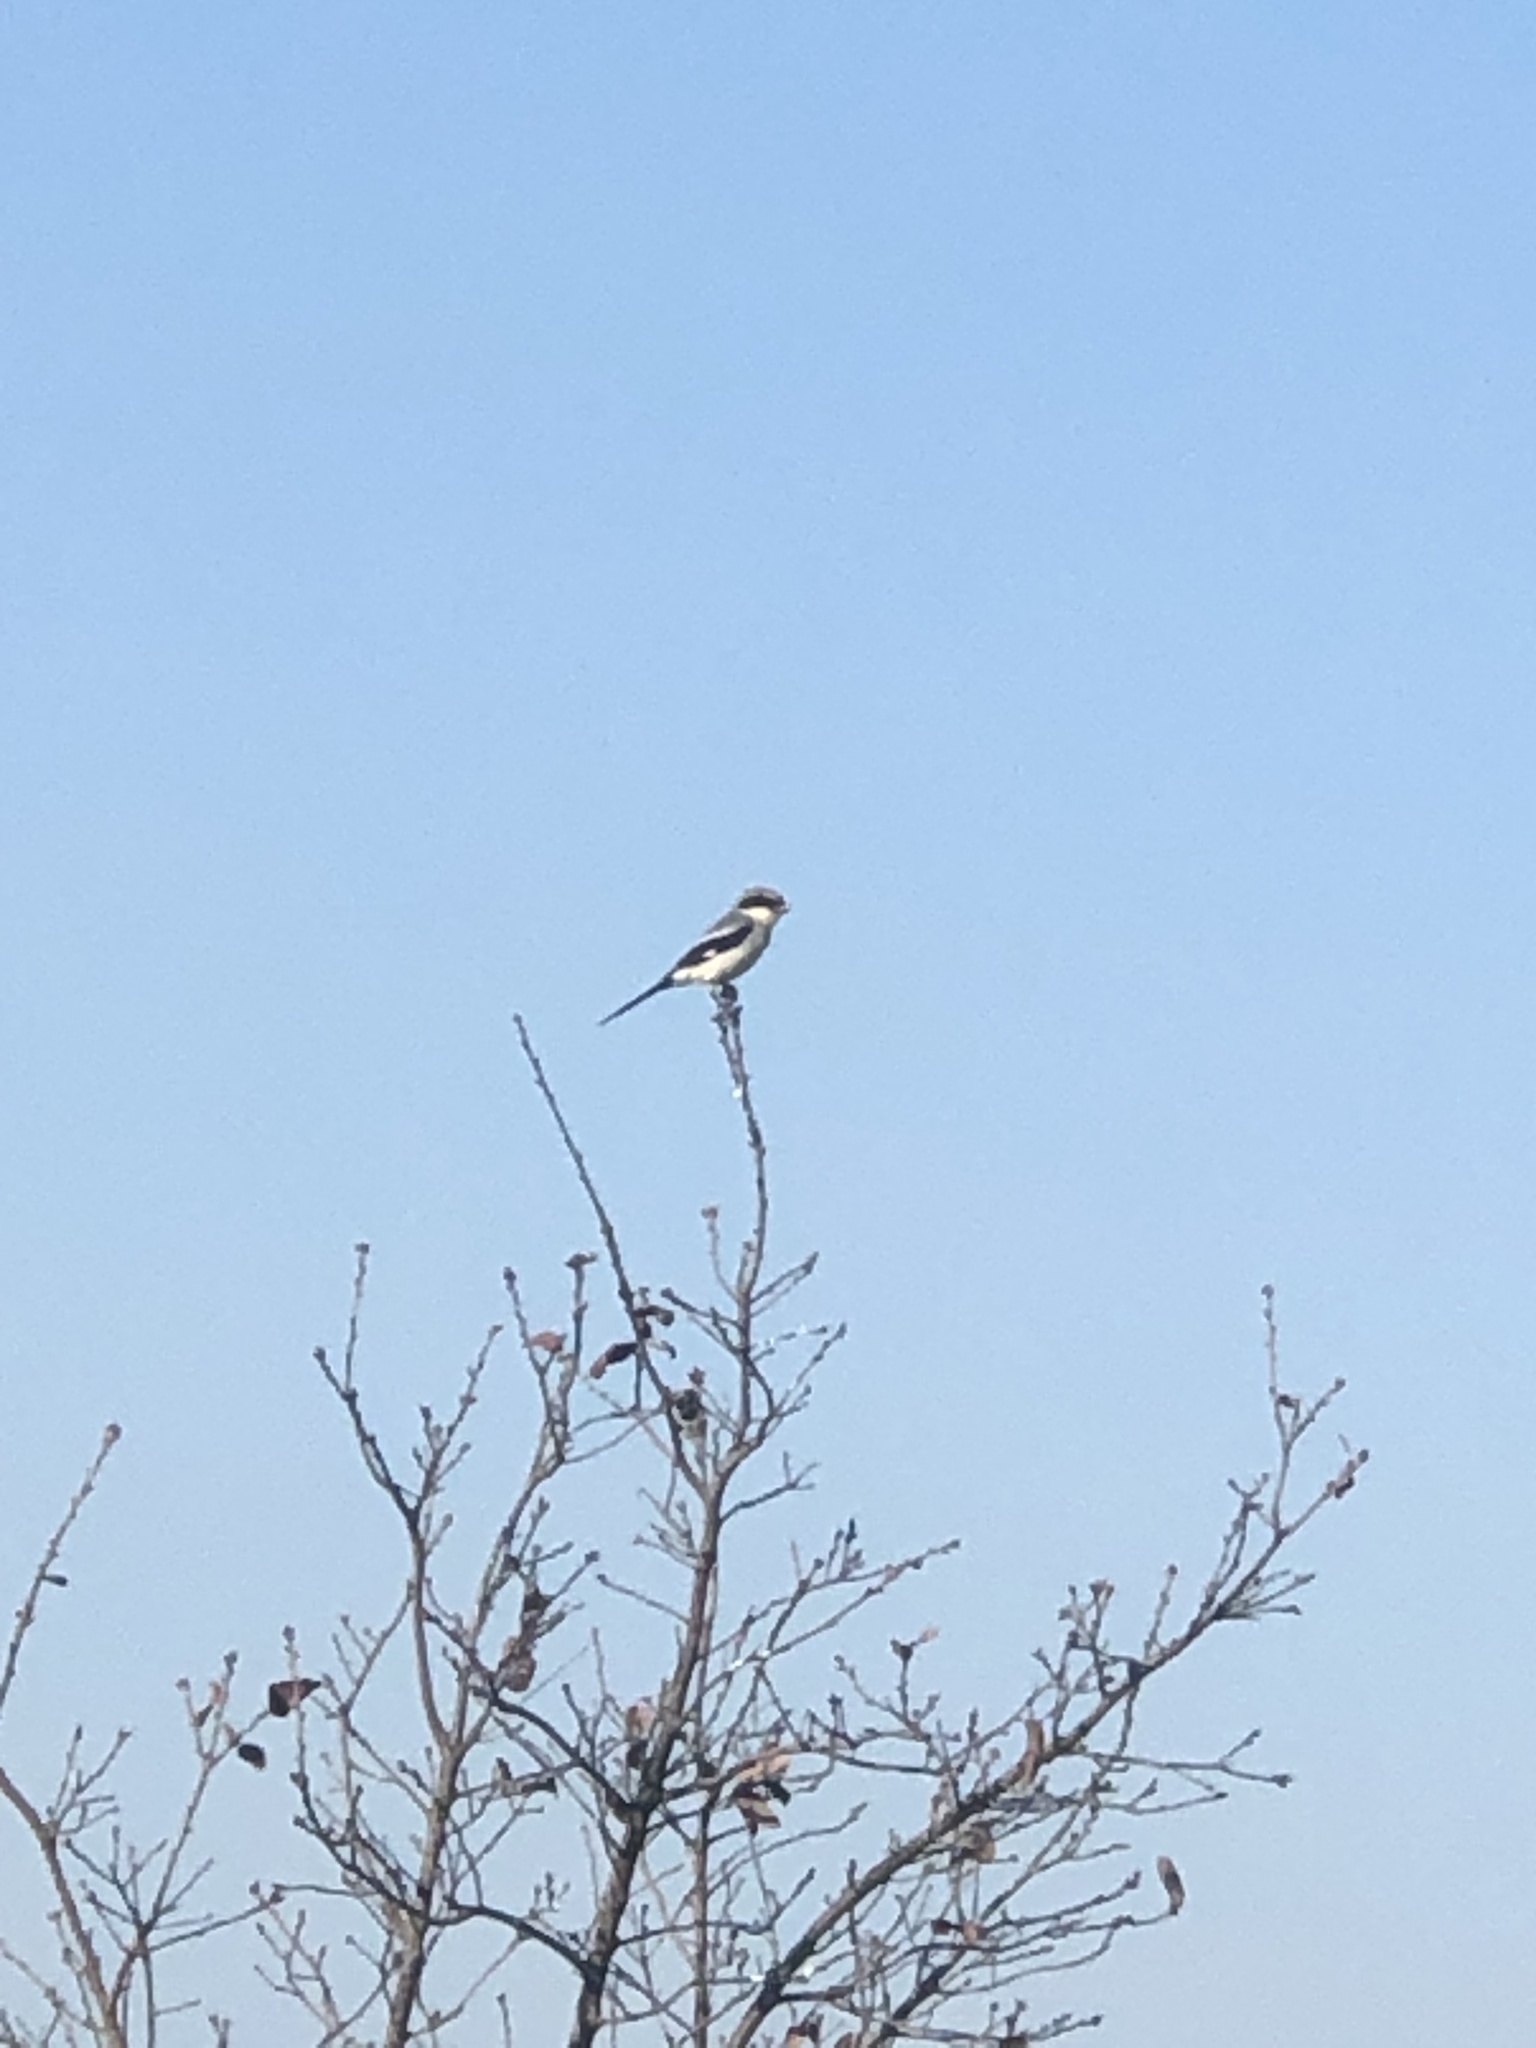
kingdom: Animalia
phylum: Chordata
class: Aves
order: Passeriformes
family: Laniidae
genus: Lanius
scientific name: Lanius ludovicianus
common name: Loggerhead shrike
